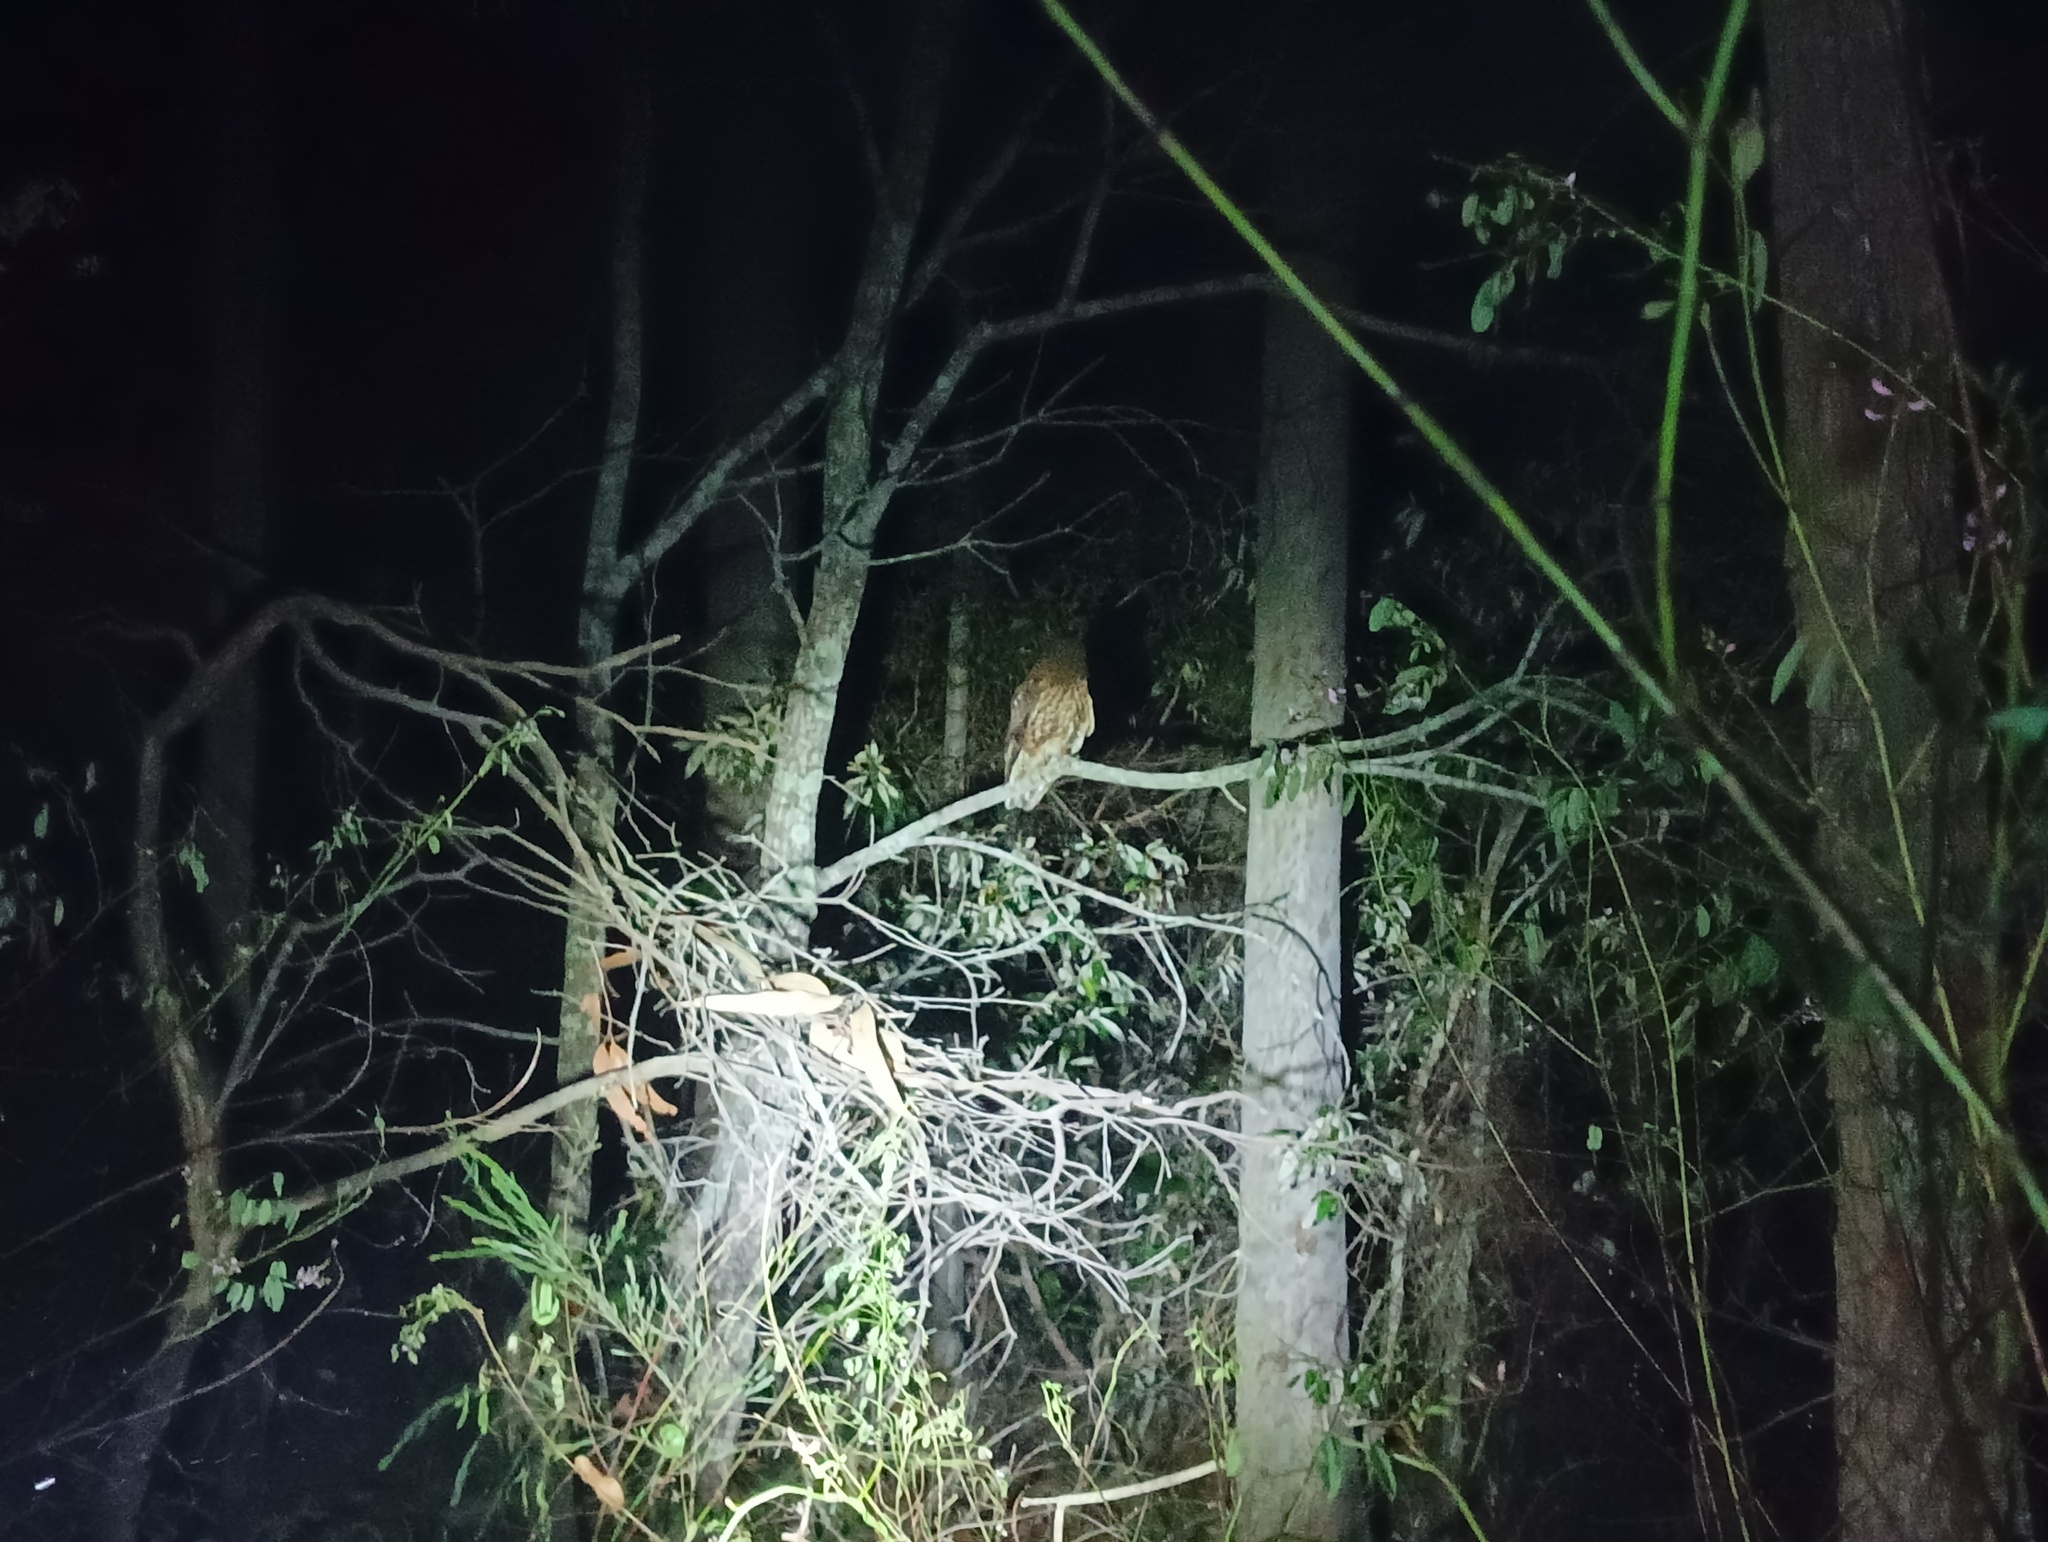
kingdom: Animalia
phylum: Chordata
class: Aves
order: Strigiformes
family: Strigidae
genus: Ninox
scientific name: Ninox boobook
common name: Southern boobook
